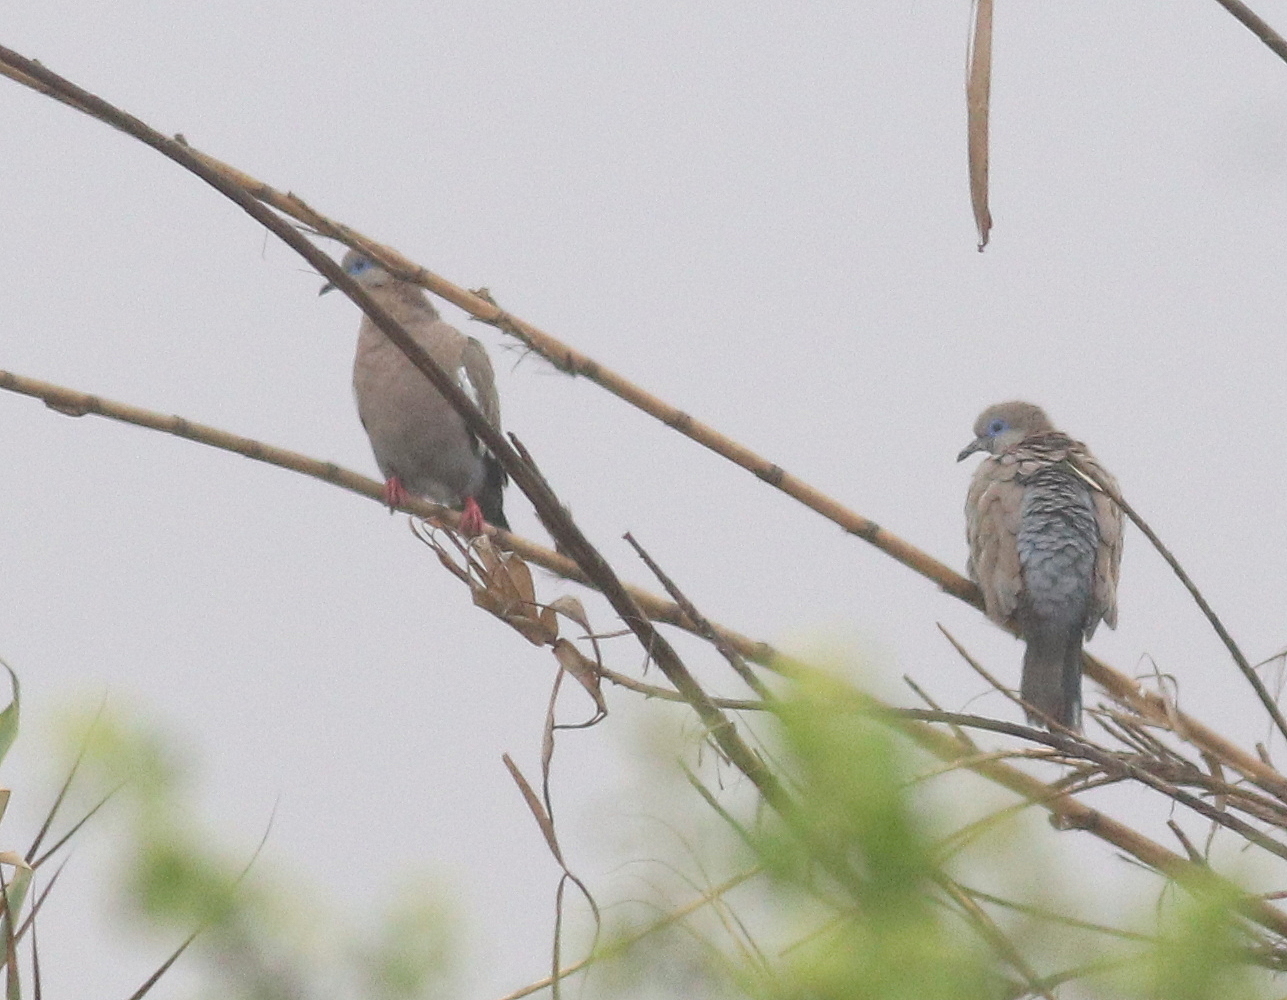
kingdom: Animalia
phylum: Chordata
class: Aves
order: Columbiformes
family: Columbidae
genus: Zenaida
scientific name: Zenaida meloda
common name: West peruvian dove
